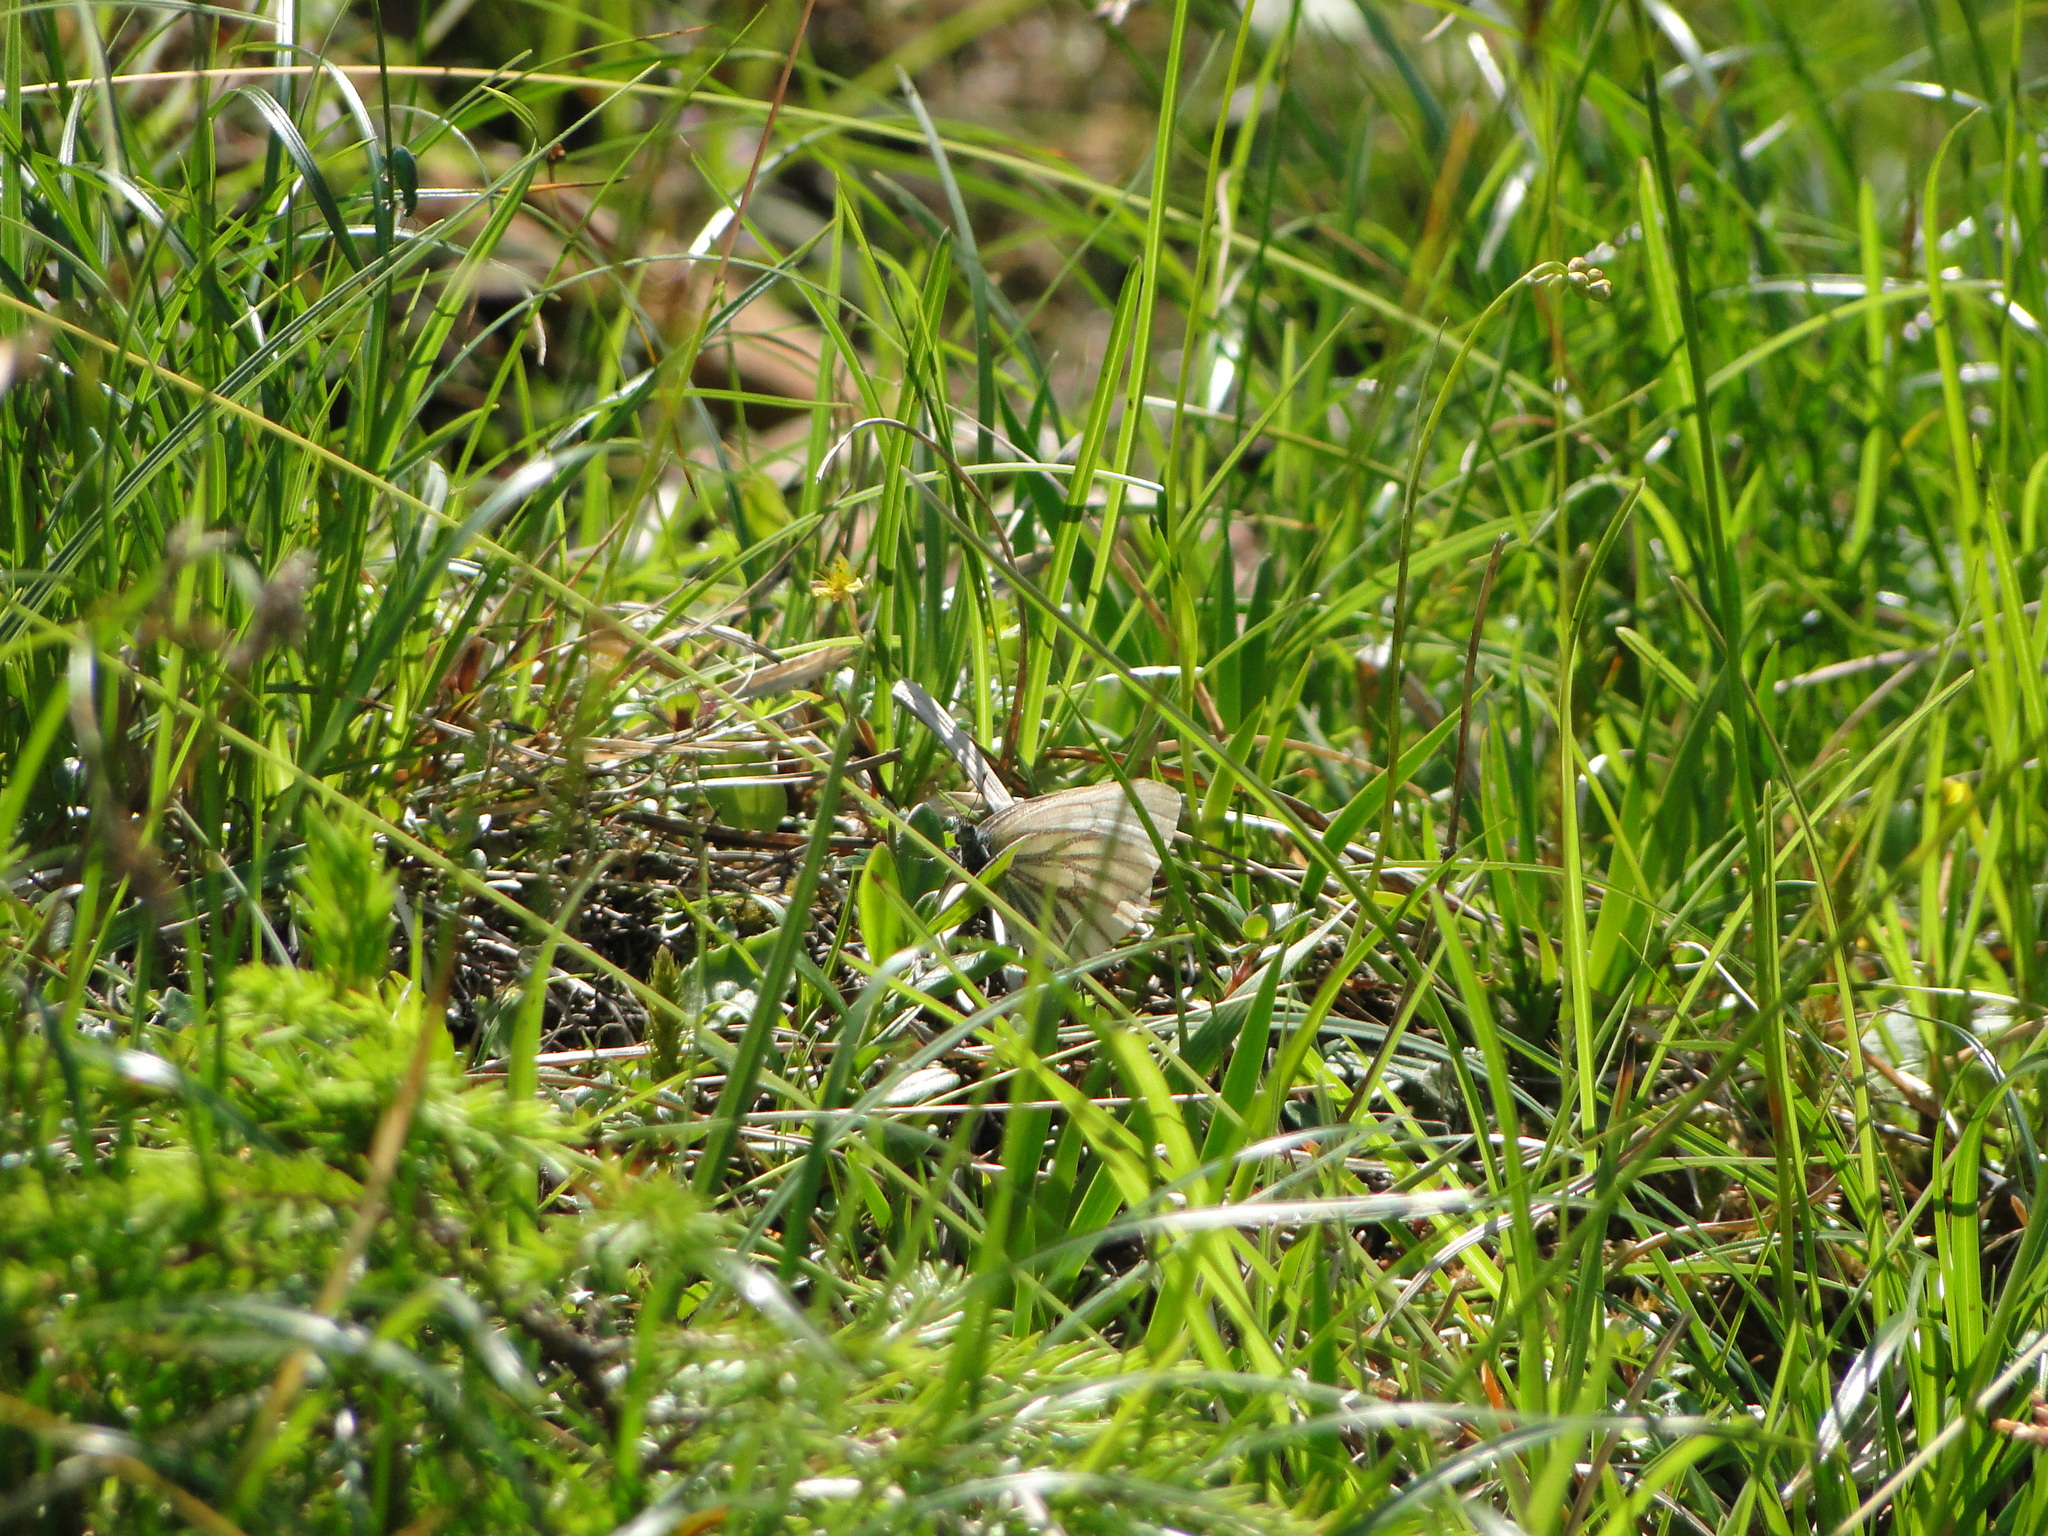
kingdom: Animalia
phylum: Arthropoda
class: Insecta
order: Lepidoptera
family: Pieridae
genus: Pieris
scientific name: Pieris bryoniae
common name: Mountain green-veined white
